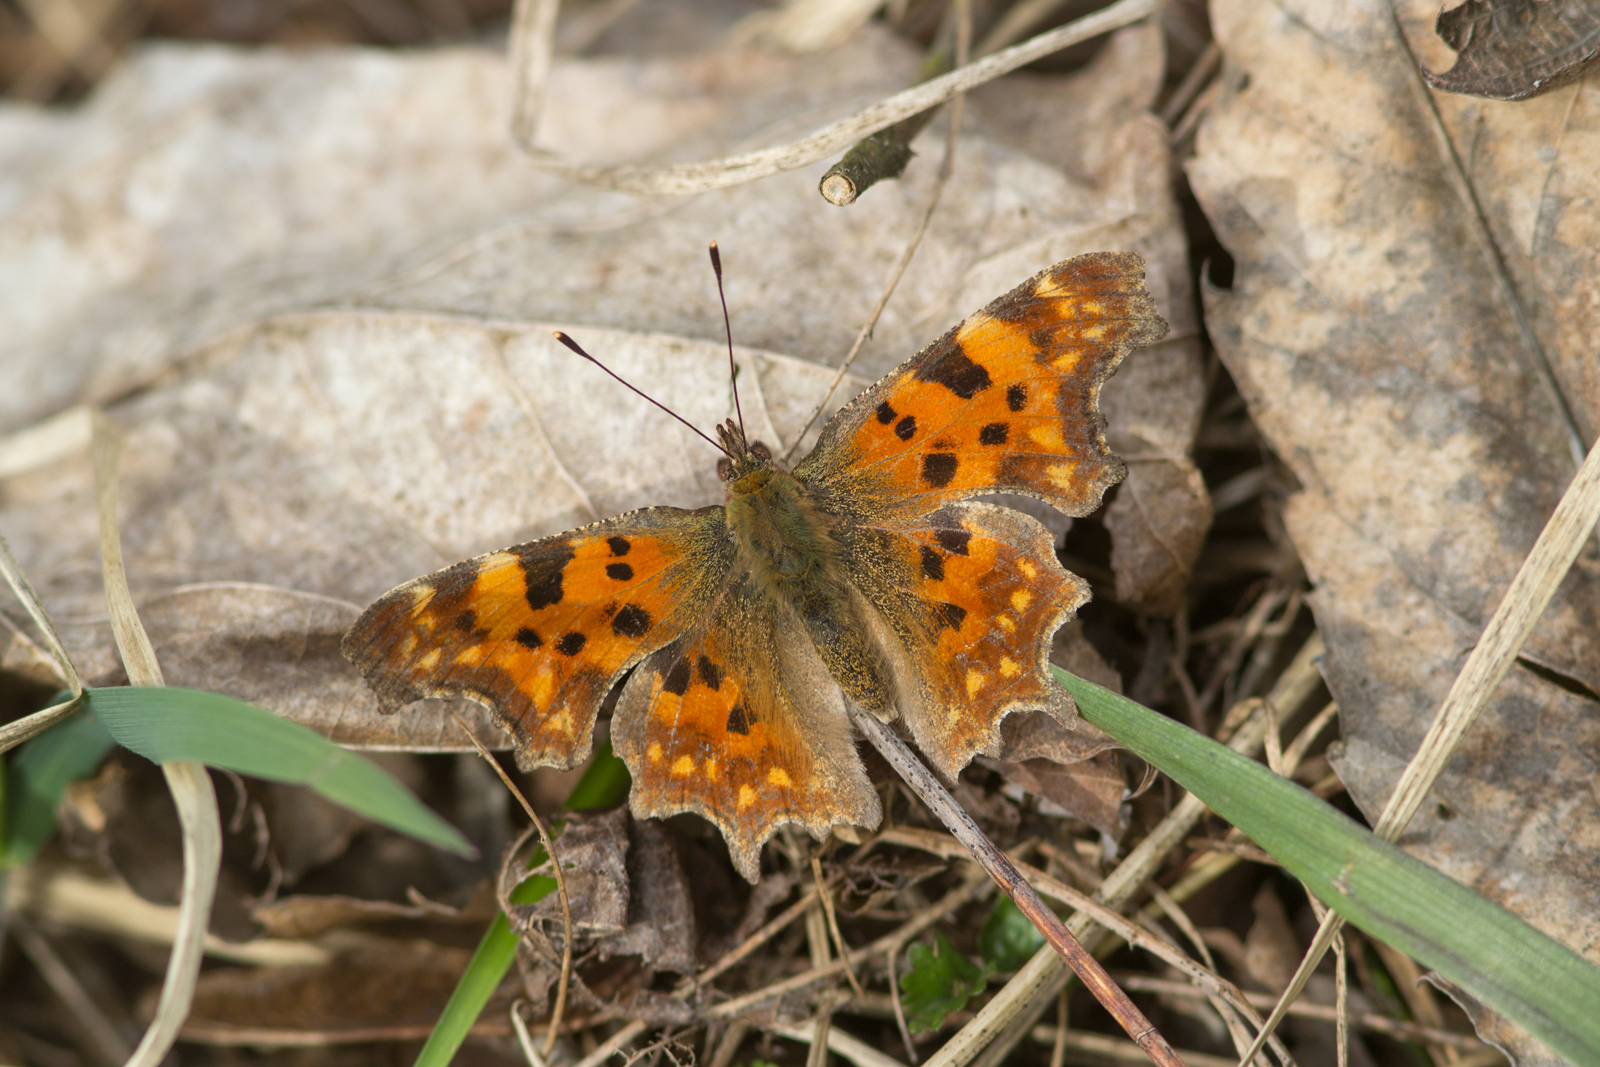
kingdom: Animalia
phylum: Arthropoda
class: Insecta
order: Lepidoptera
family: Nymphalidae
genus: Polygonia
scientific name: Polygonia c-album
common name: Comma
